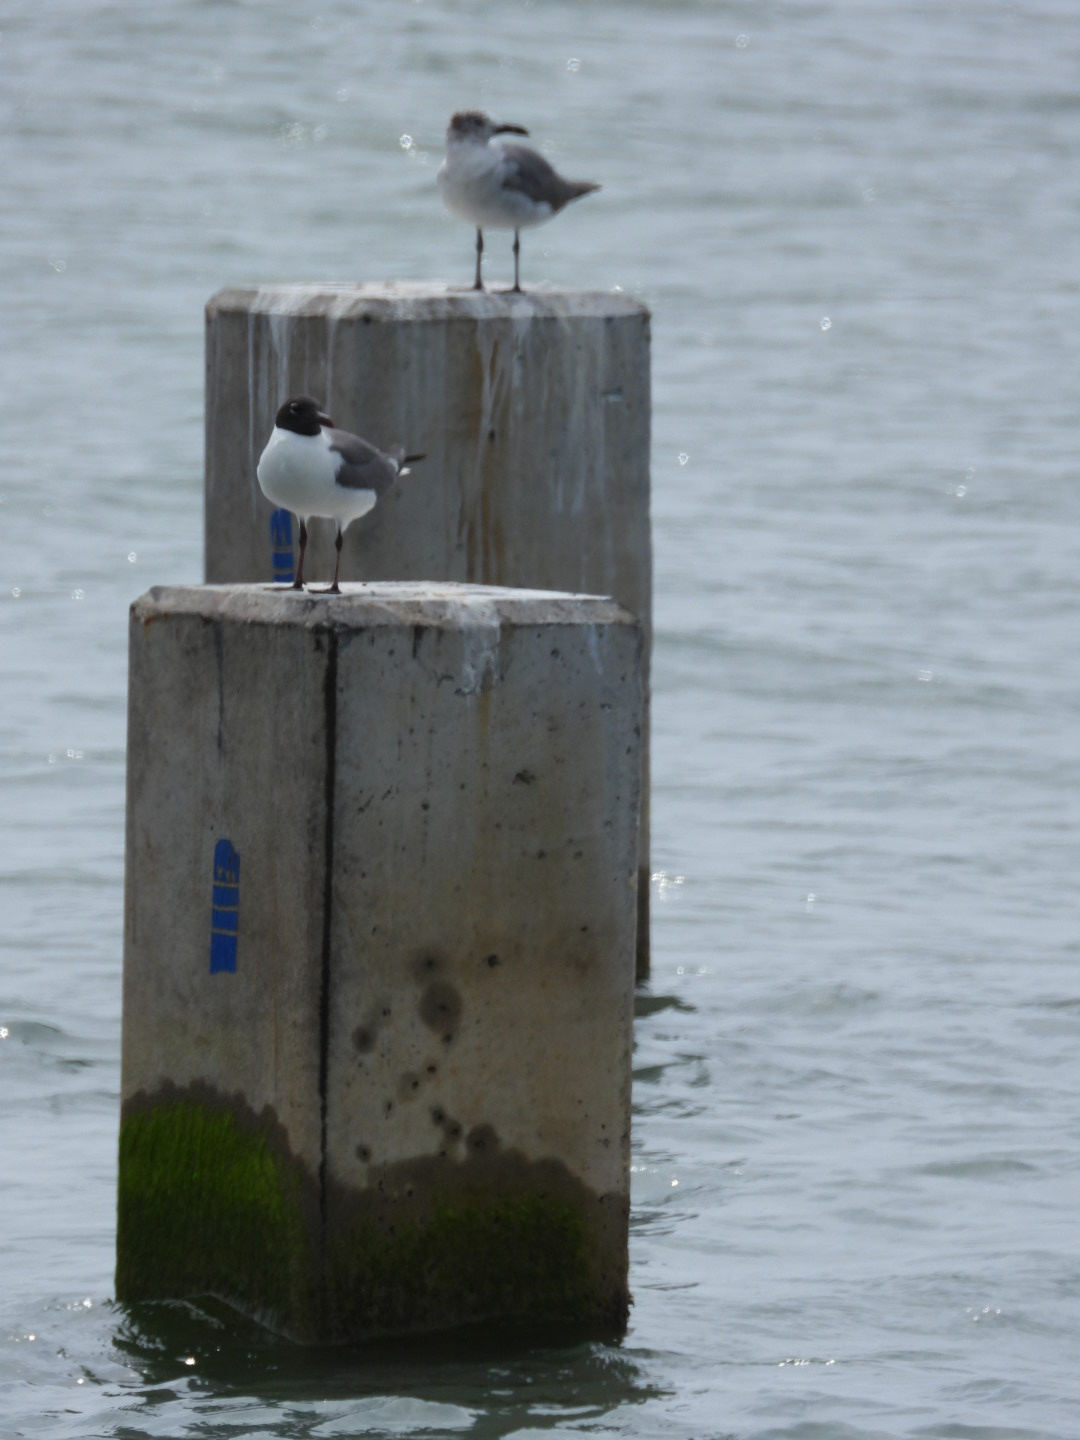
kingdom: Animalia
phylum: Chordata
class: Aves
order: Charadriiformes
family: Laridae
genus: Leucophaeus
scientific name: Leucophaeus atricilla
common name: Laughing gull
